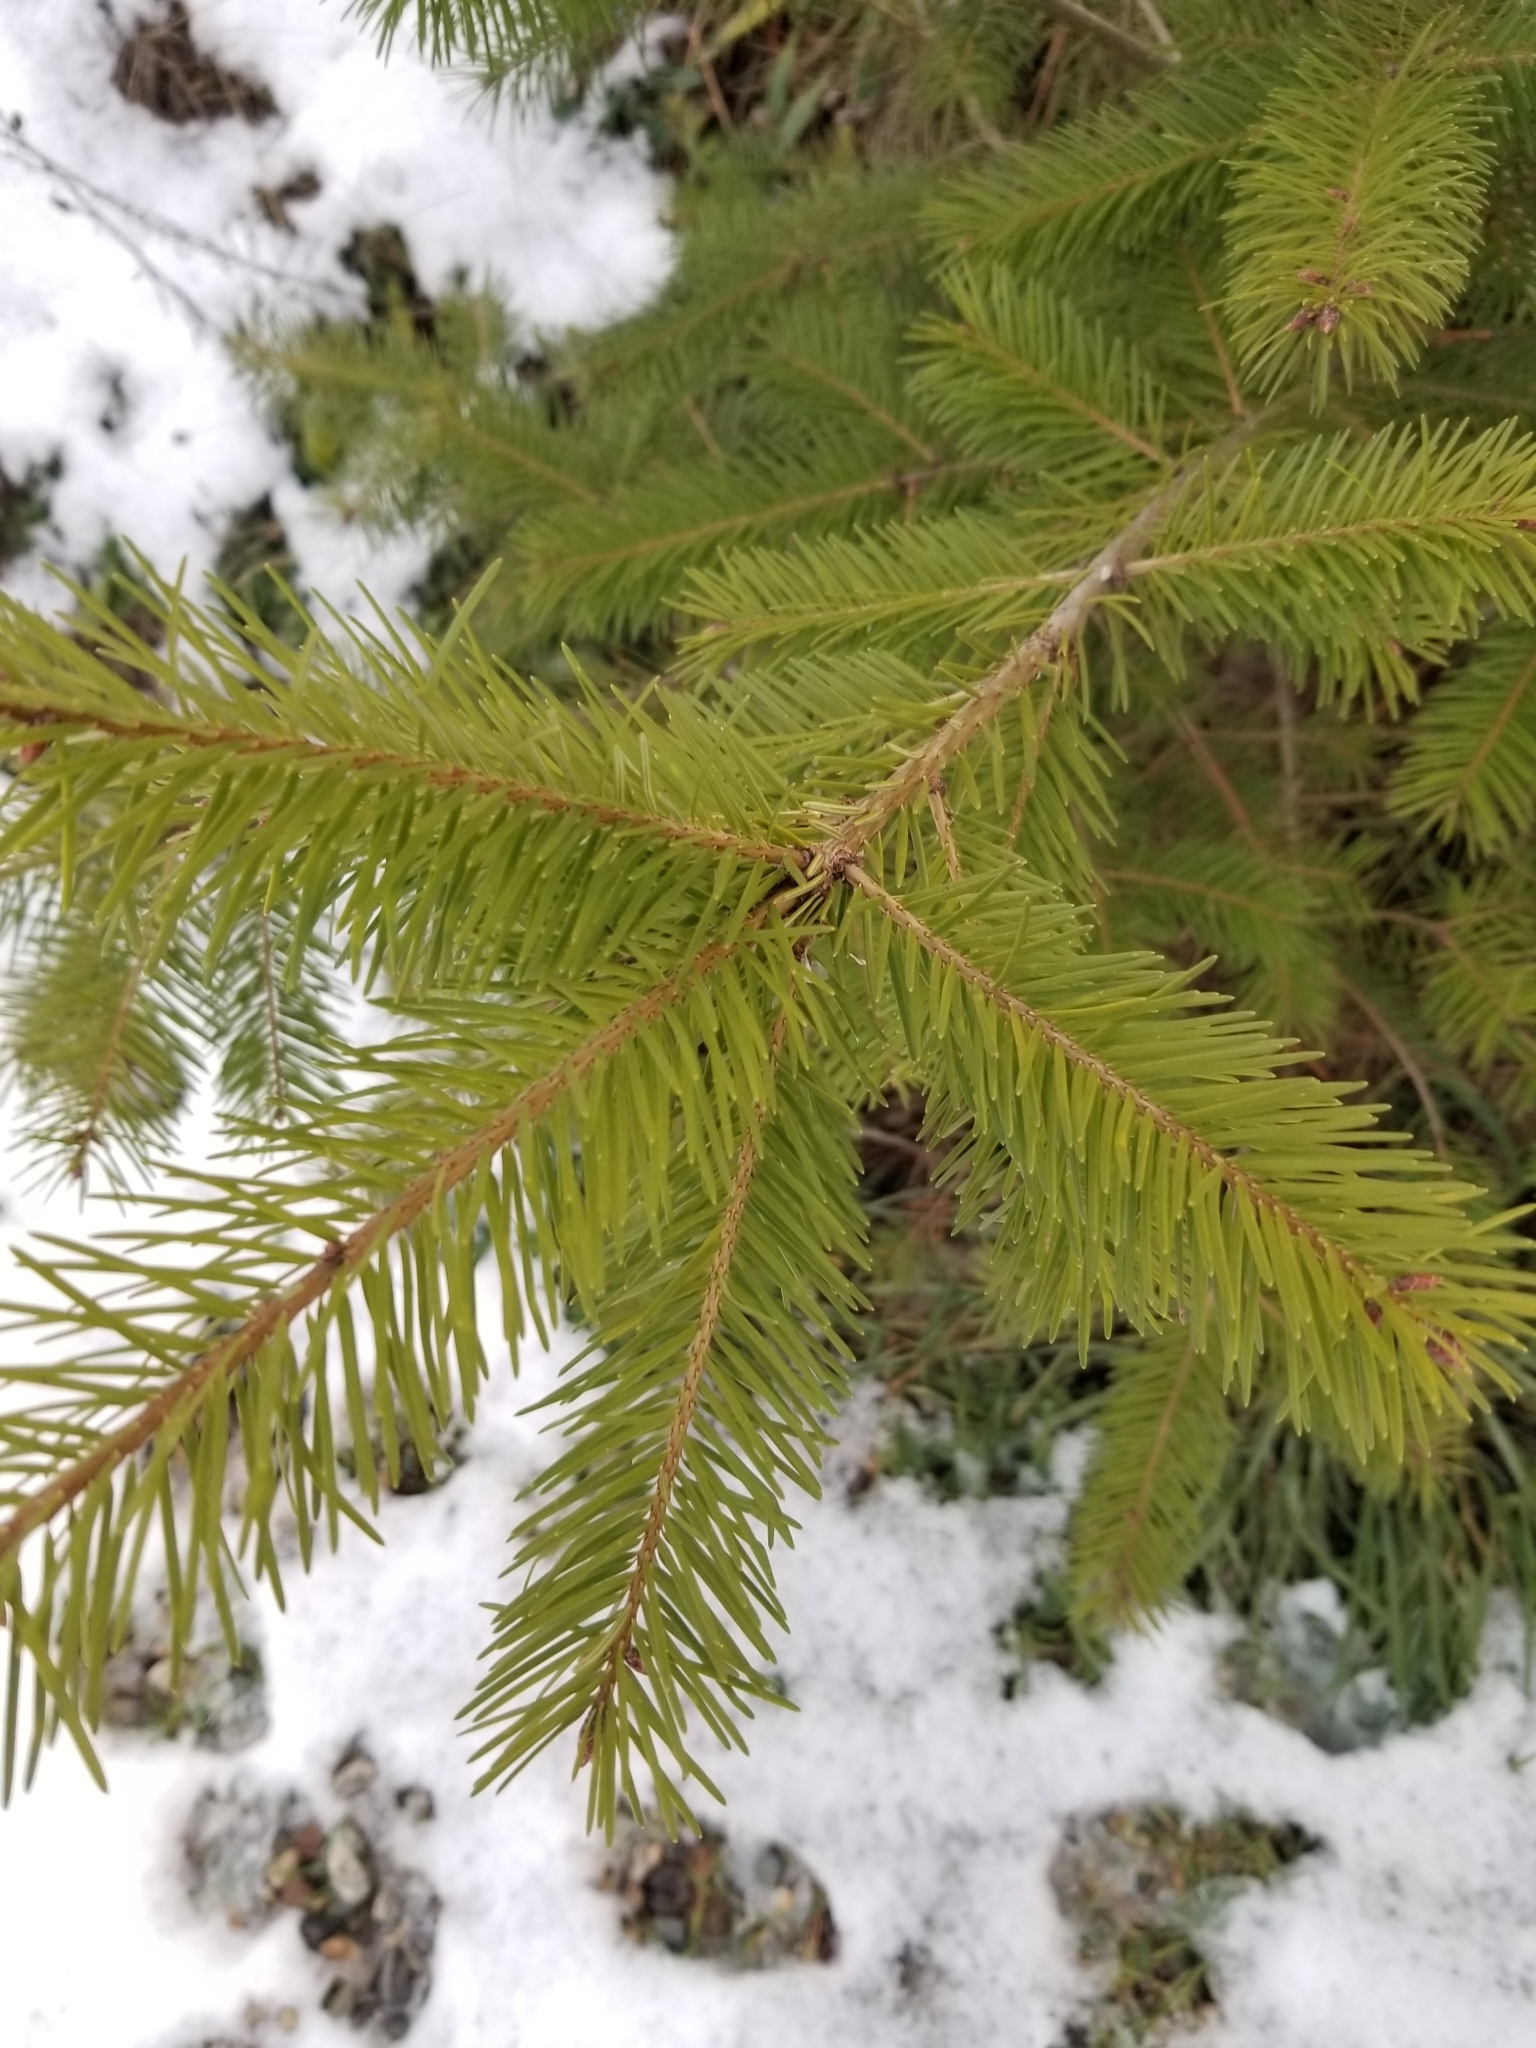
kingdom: Plantae
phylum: Tracheophyta
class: Pinopsida
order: Pinales
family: Pinaceae
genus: Pseudotsuga
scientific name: Pseudotsuga menziesii
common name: Douglas fir
